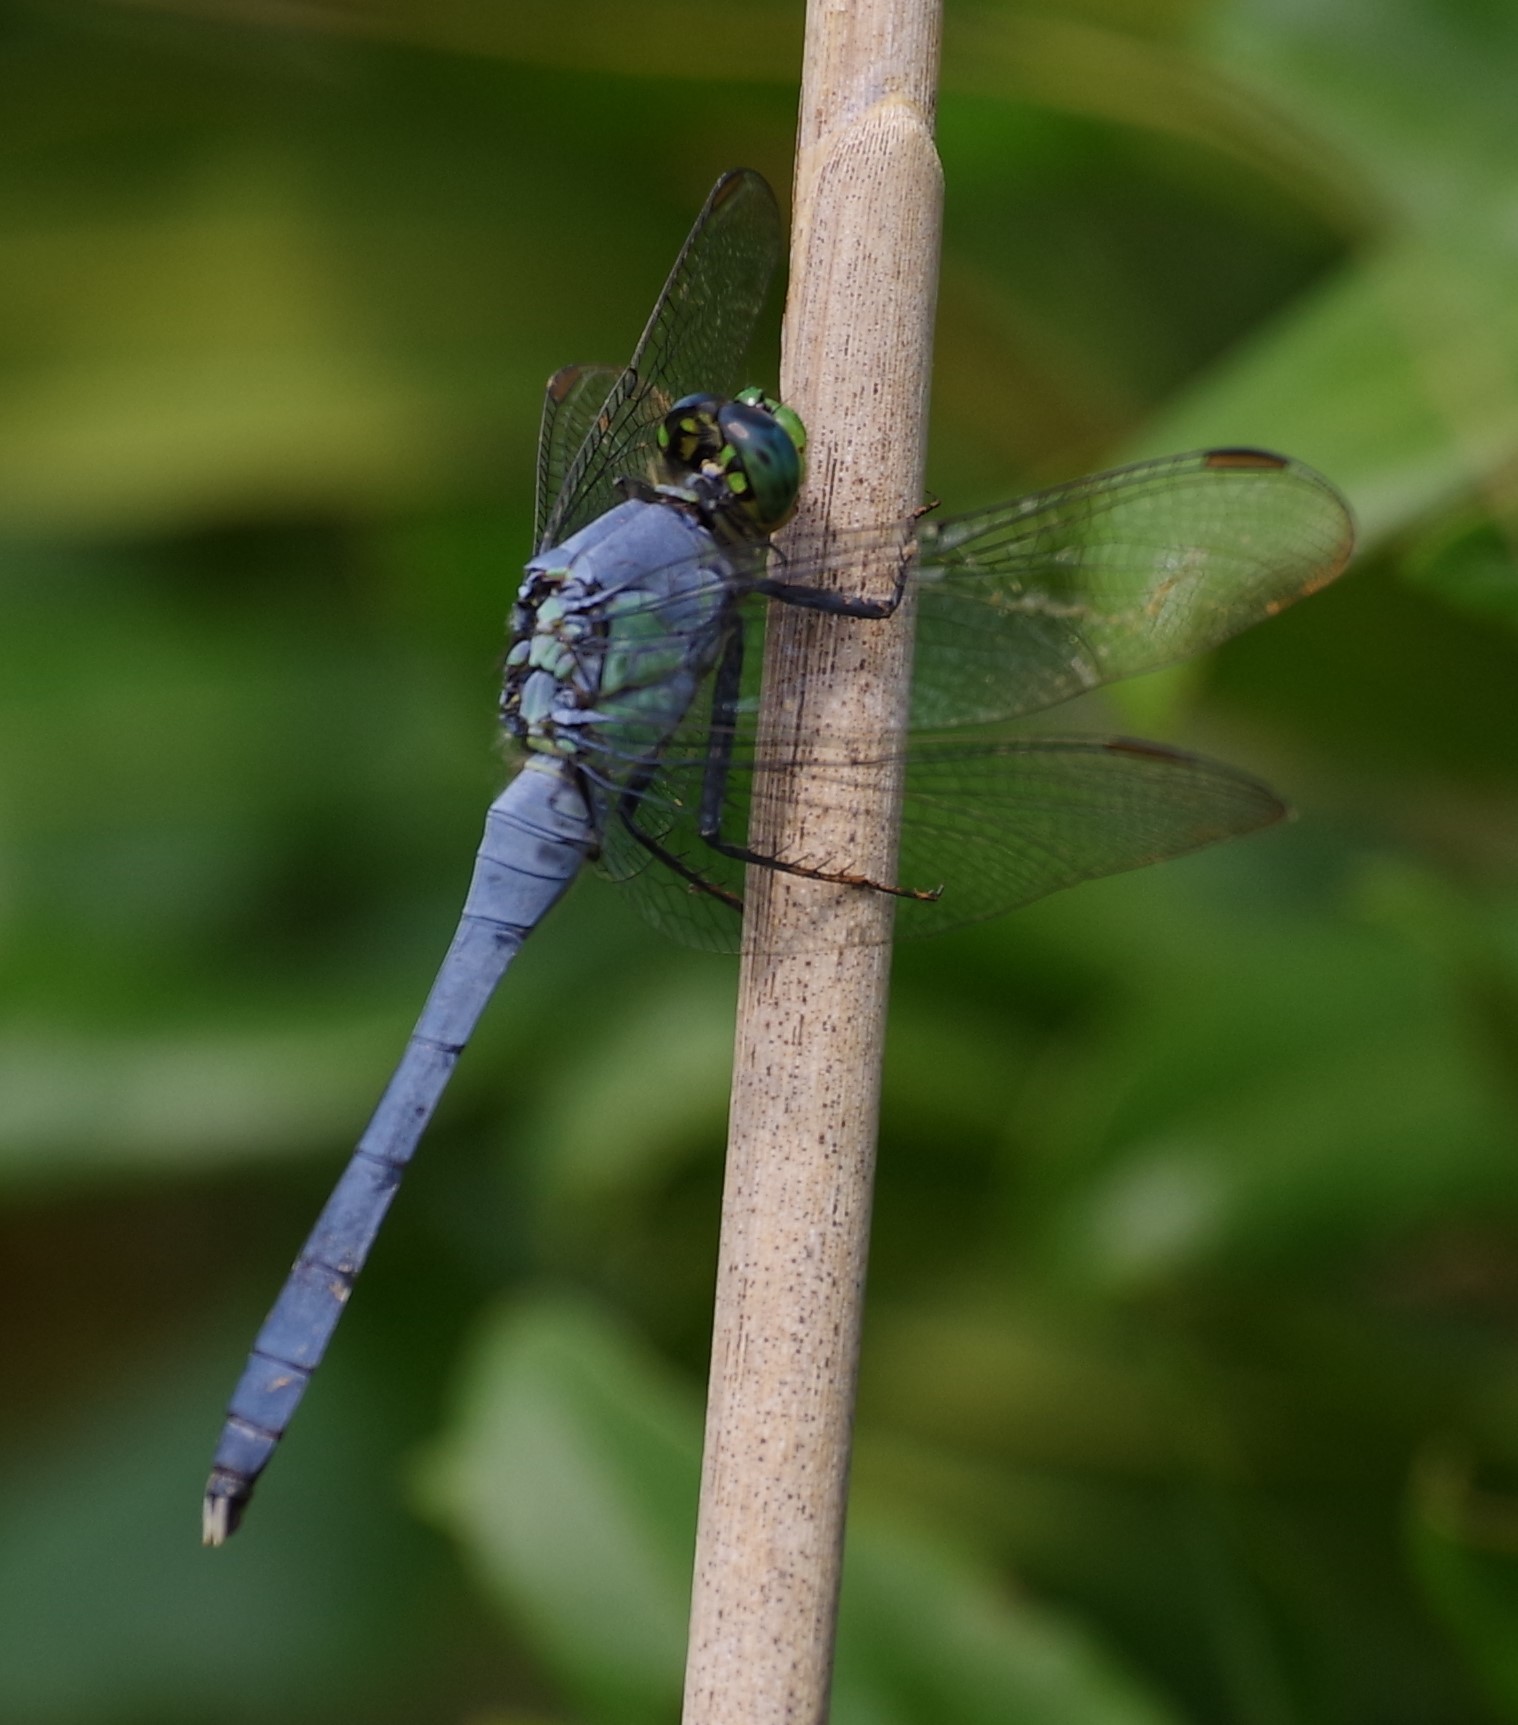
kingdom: Animalia
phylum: Arthropoda
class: Insecta
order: Odonata
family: Libellulidae
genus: Erythemis
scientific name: Erythemis simplicicollis
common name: Eastern pondhawk
